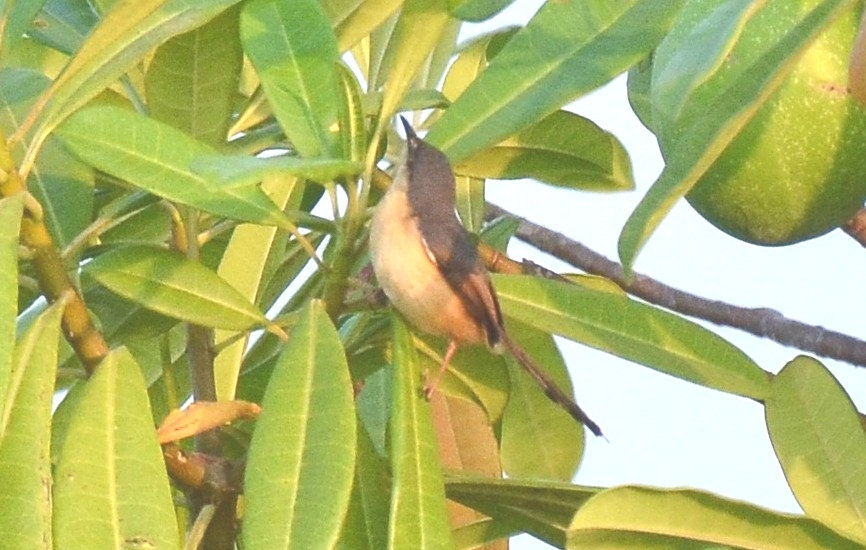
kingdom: Animalia
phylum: Chordata
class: Aves
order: Passeriformes
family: Cisticolidae
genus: Prinia
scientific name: Prinia socialis
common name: Ashy prinia
